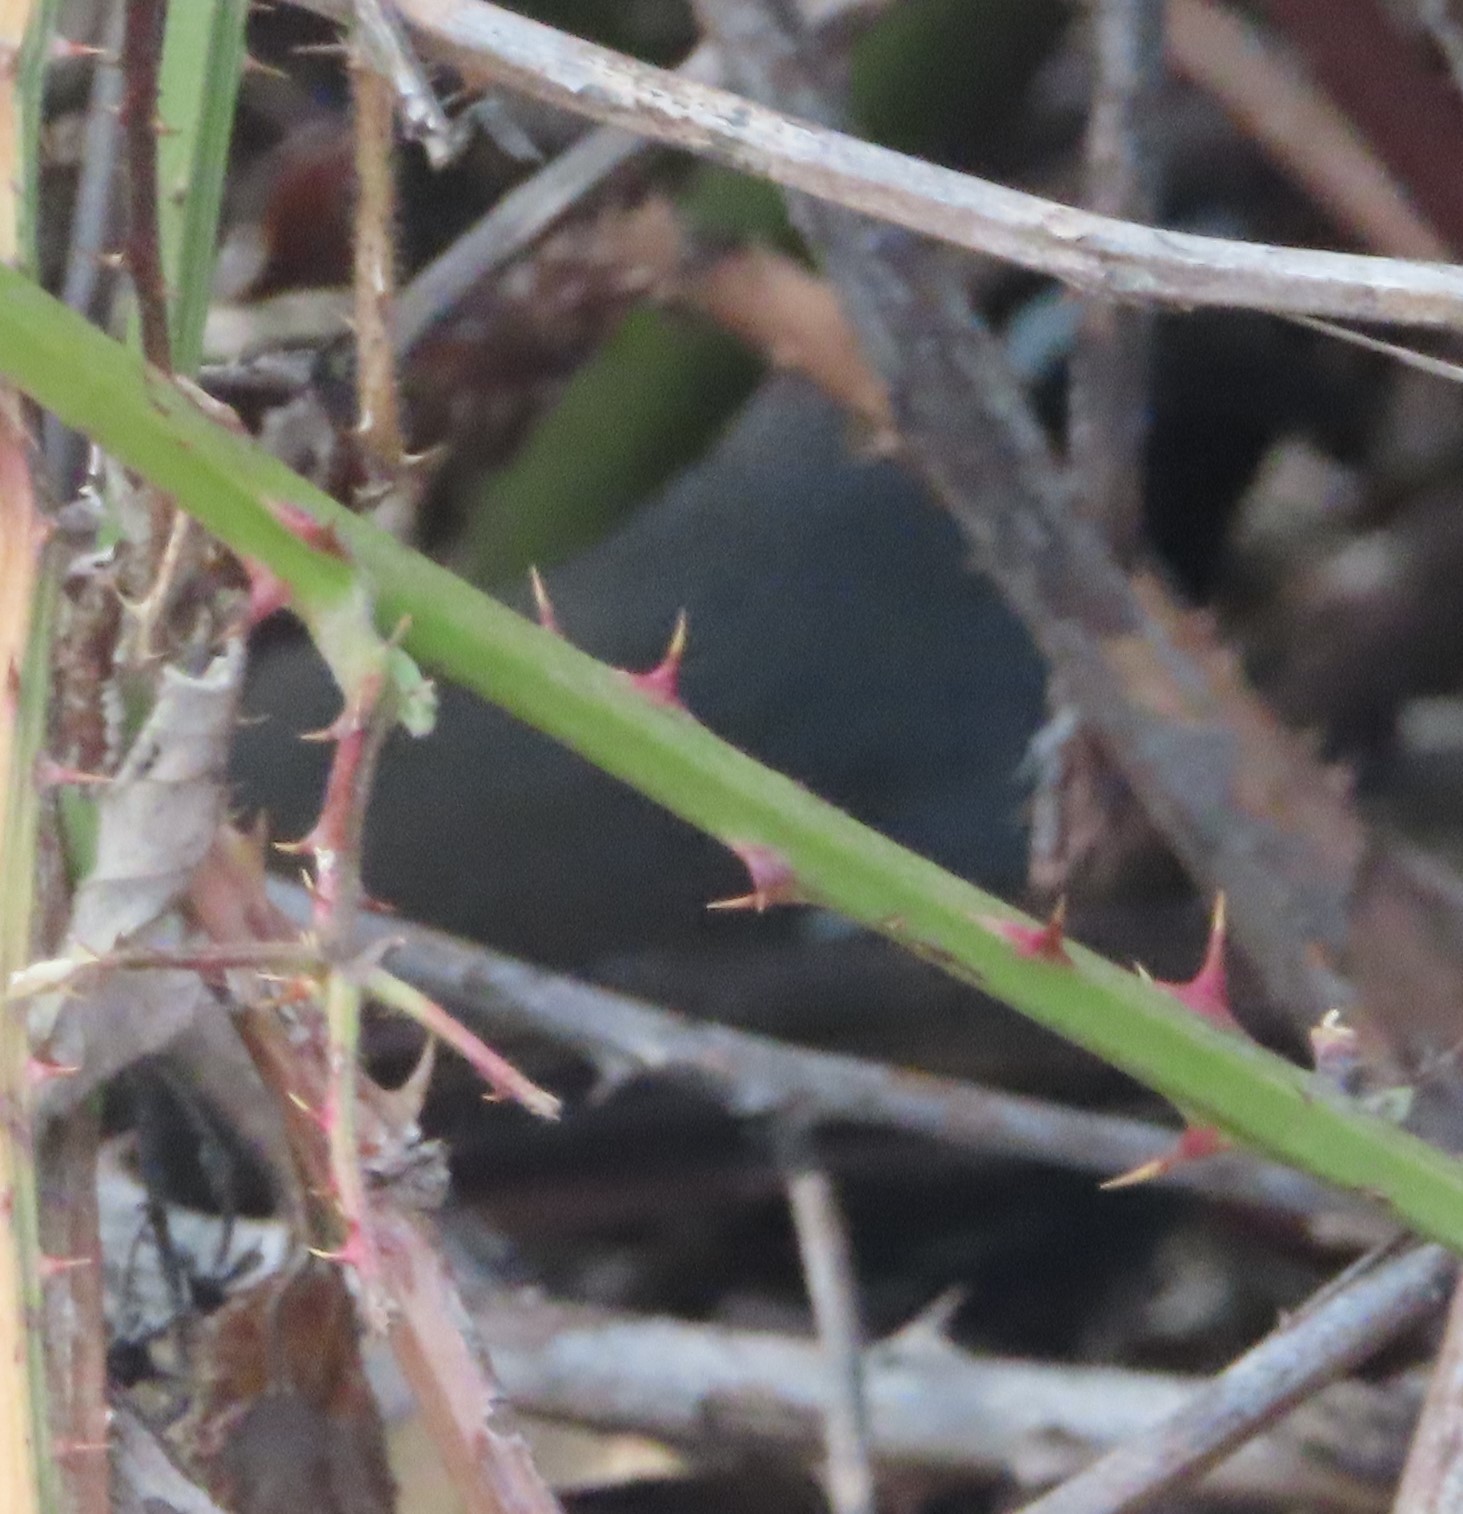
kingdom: Animalia
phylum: Chordata
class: Aves
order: Galliformes
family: Odontophoridae
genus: Callipepla
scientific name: Callipepla californica
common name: California quail
